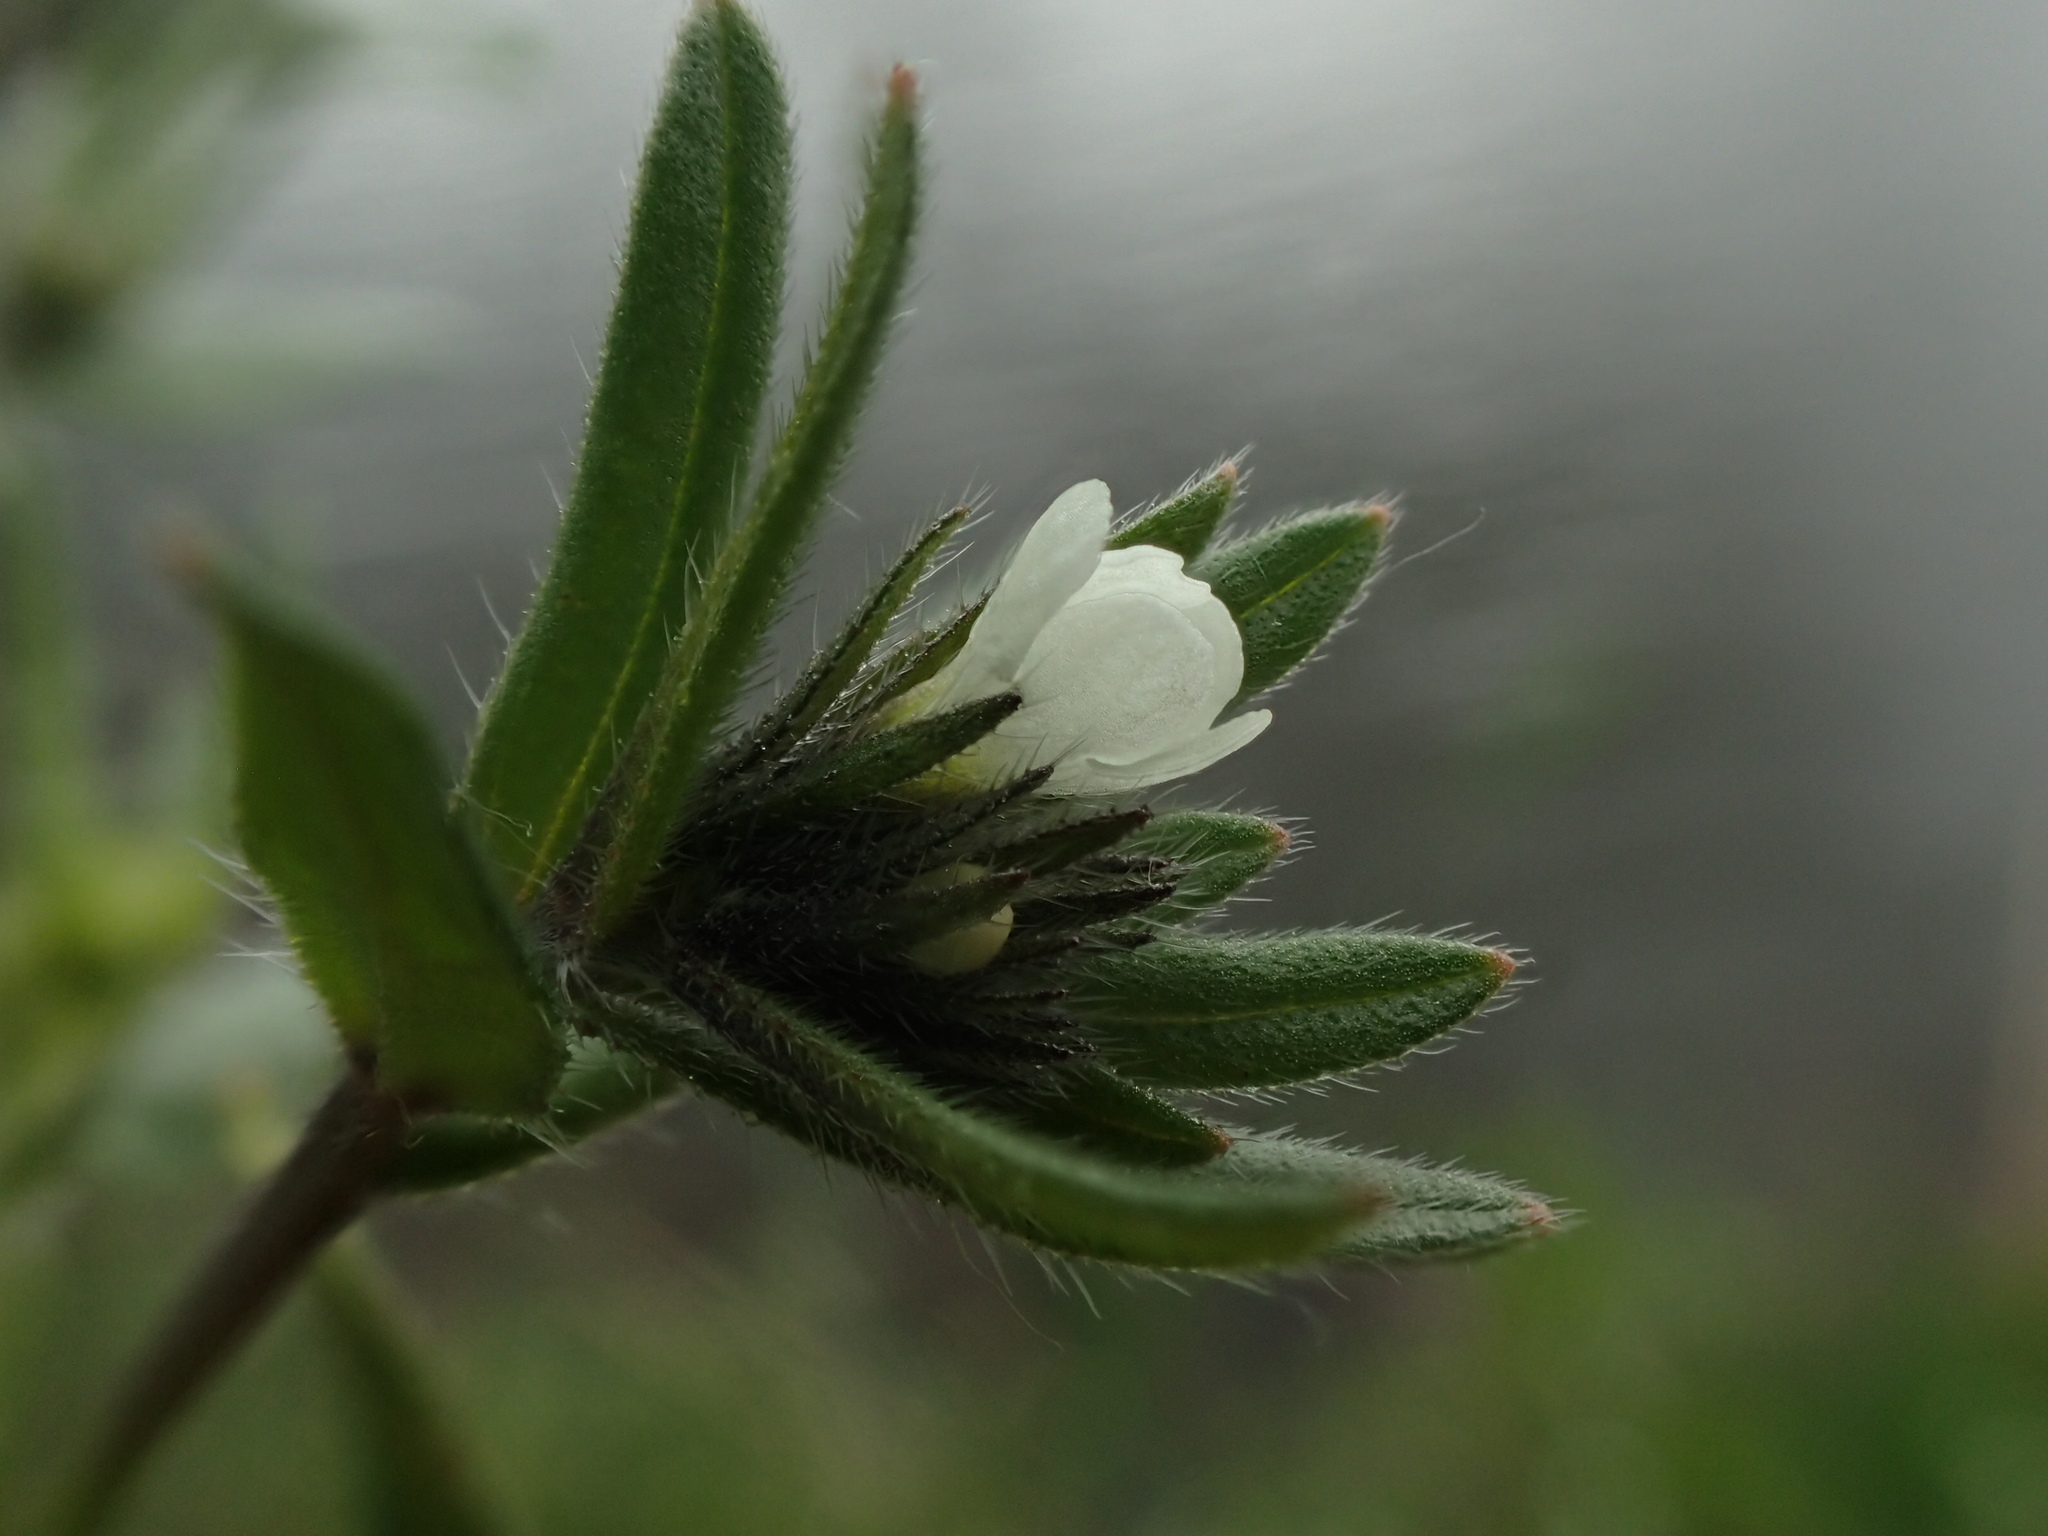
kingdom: Plantae
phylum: Tracheophyta
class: Magnoliopsida
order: Boraginales
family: Boraginaceae
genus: Buglossoides
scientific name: Buglossoides arvensis
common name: Corn gromwell
